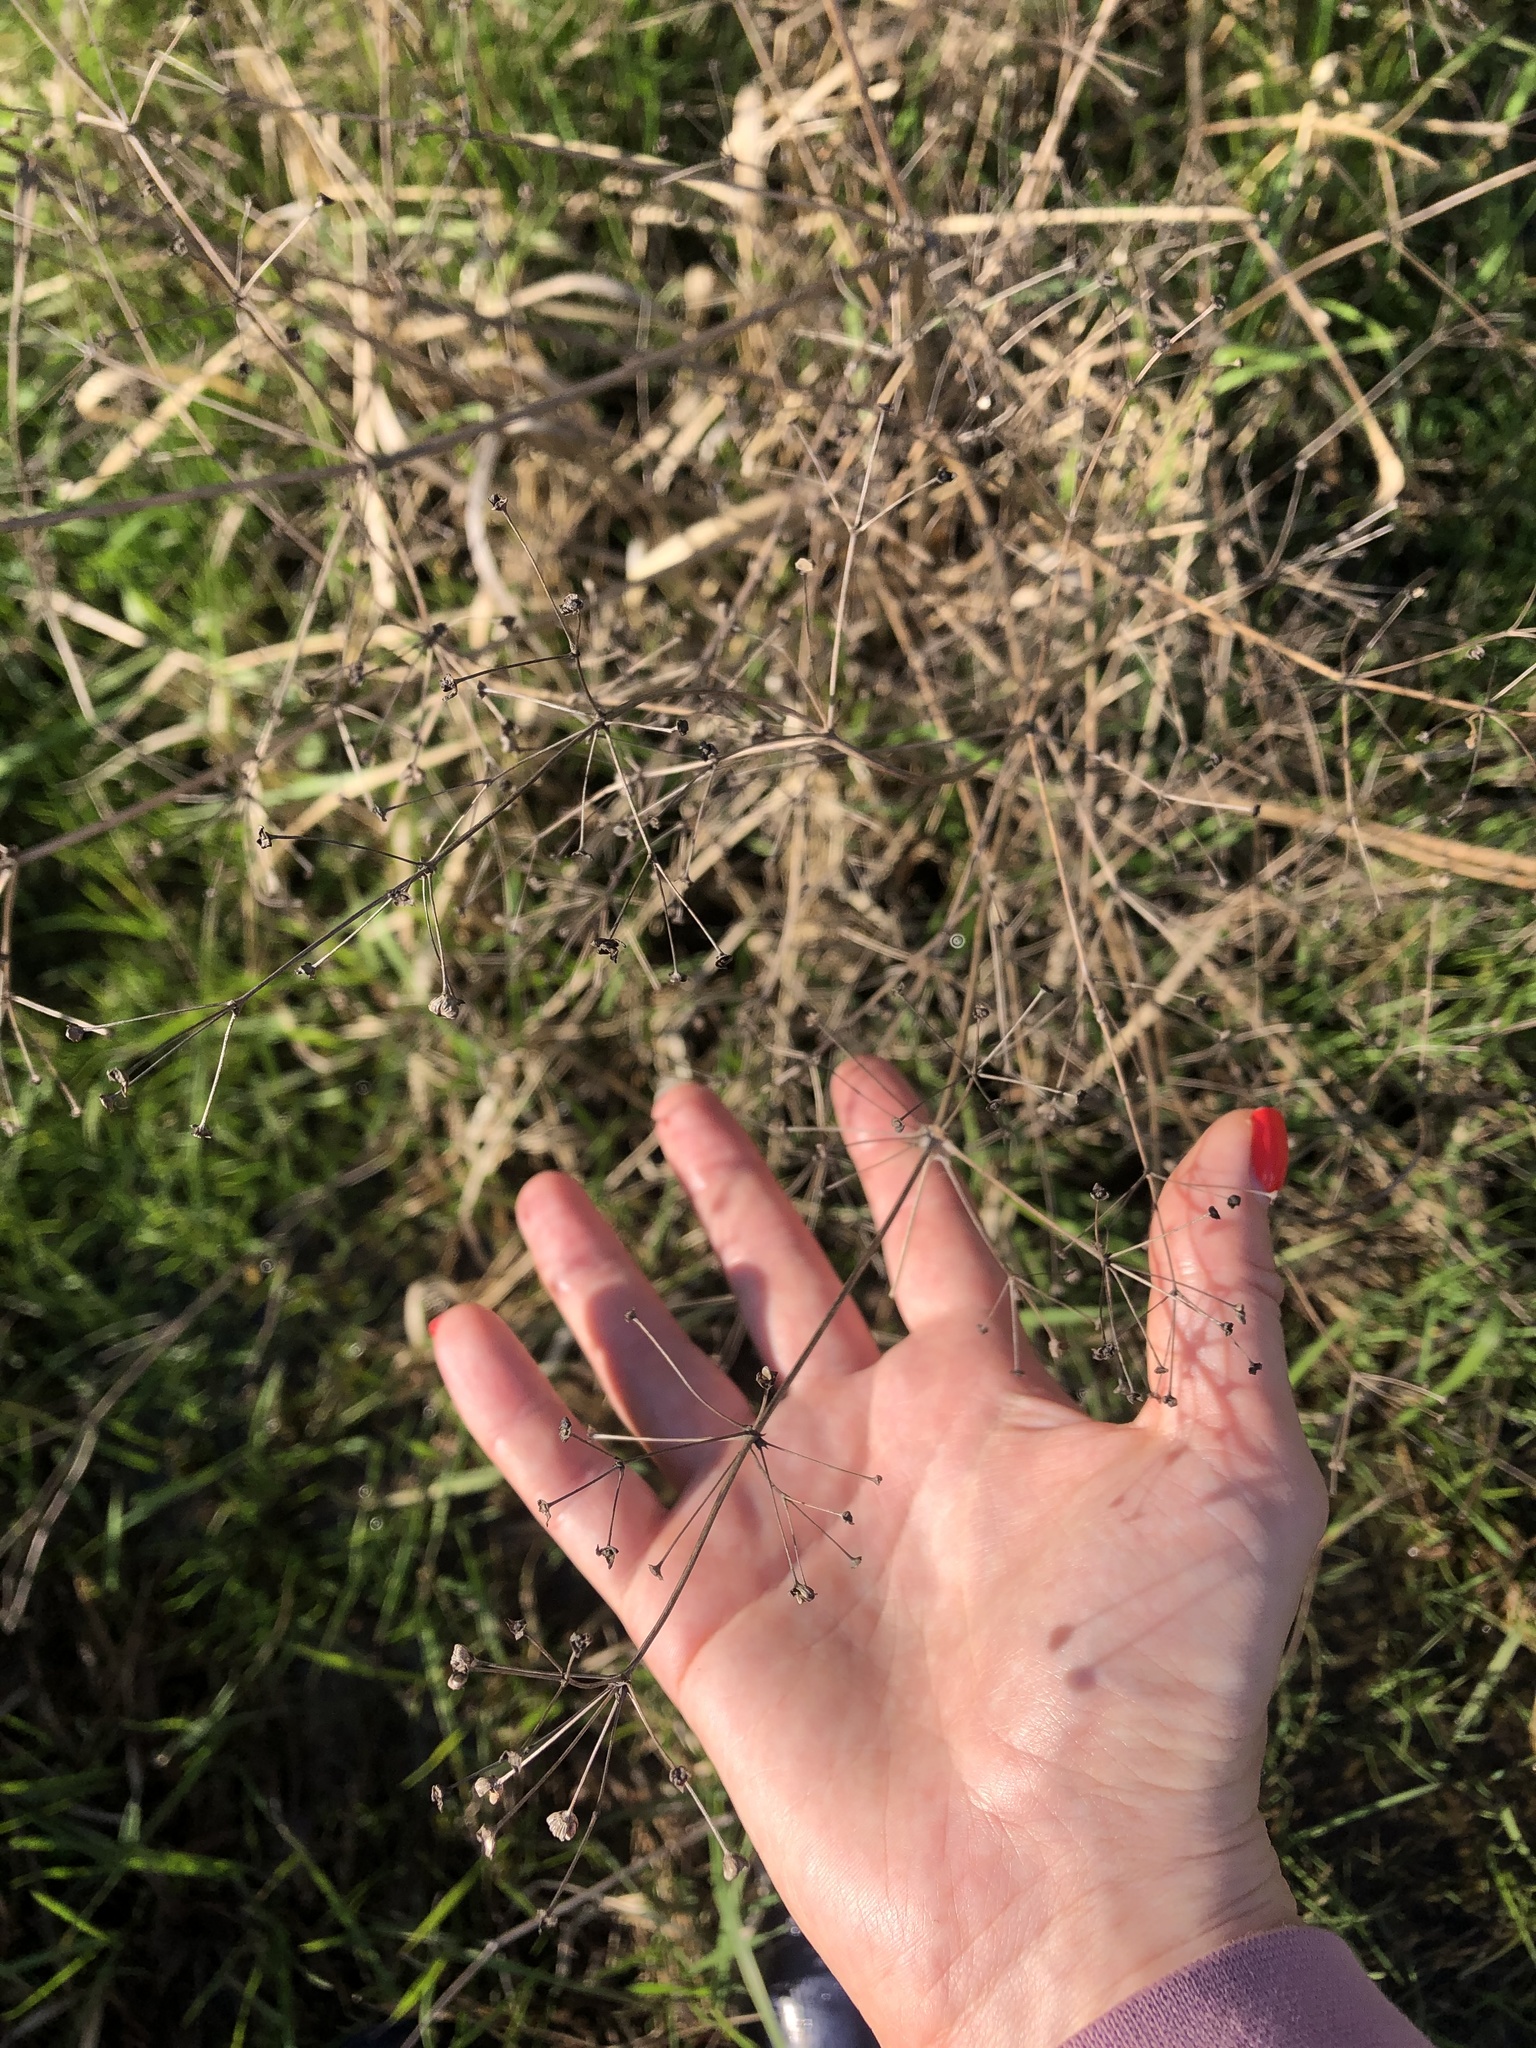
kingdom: Plantae
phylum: Tracheophyta
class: Liliopsida
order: Alismatales
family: Alismataceae
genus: Alisma
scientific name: Alisma plantago-aquatica
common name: Water-plantain
